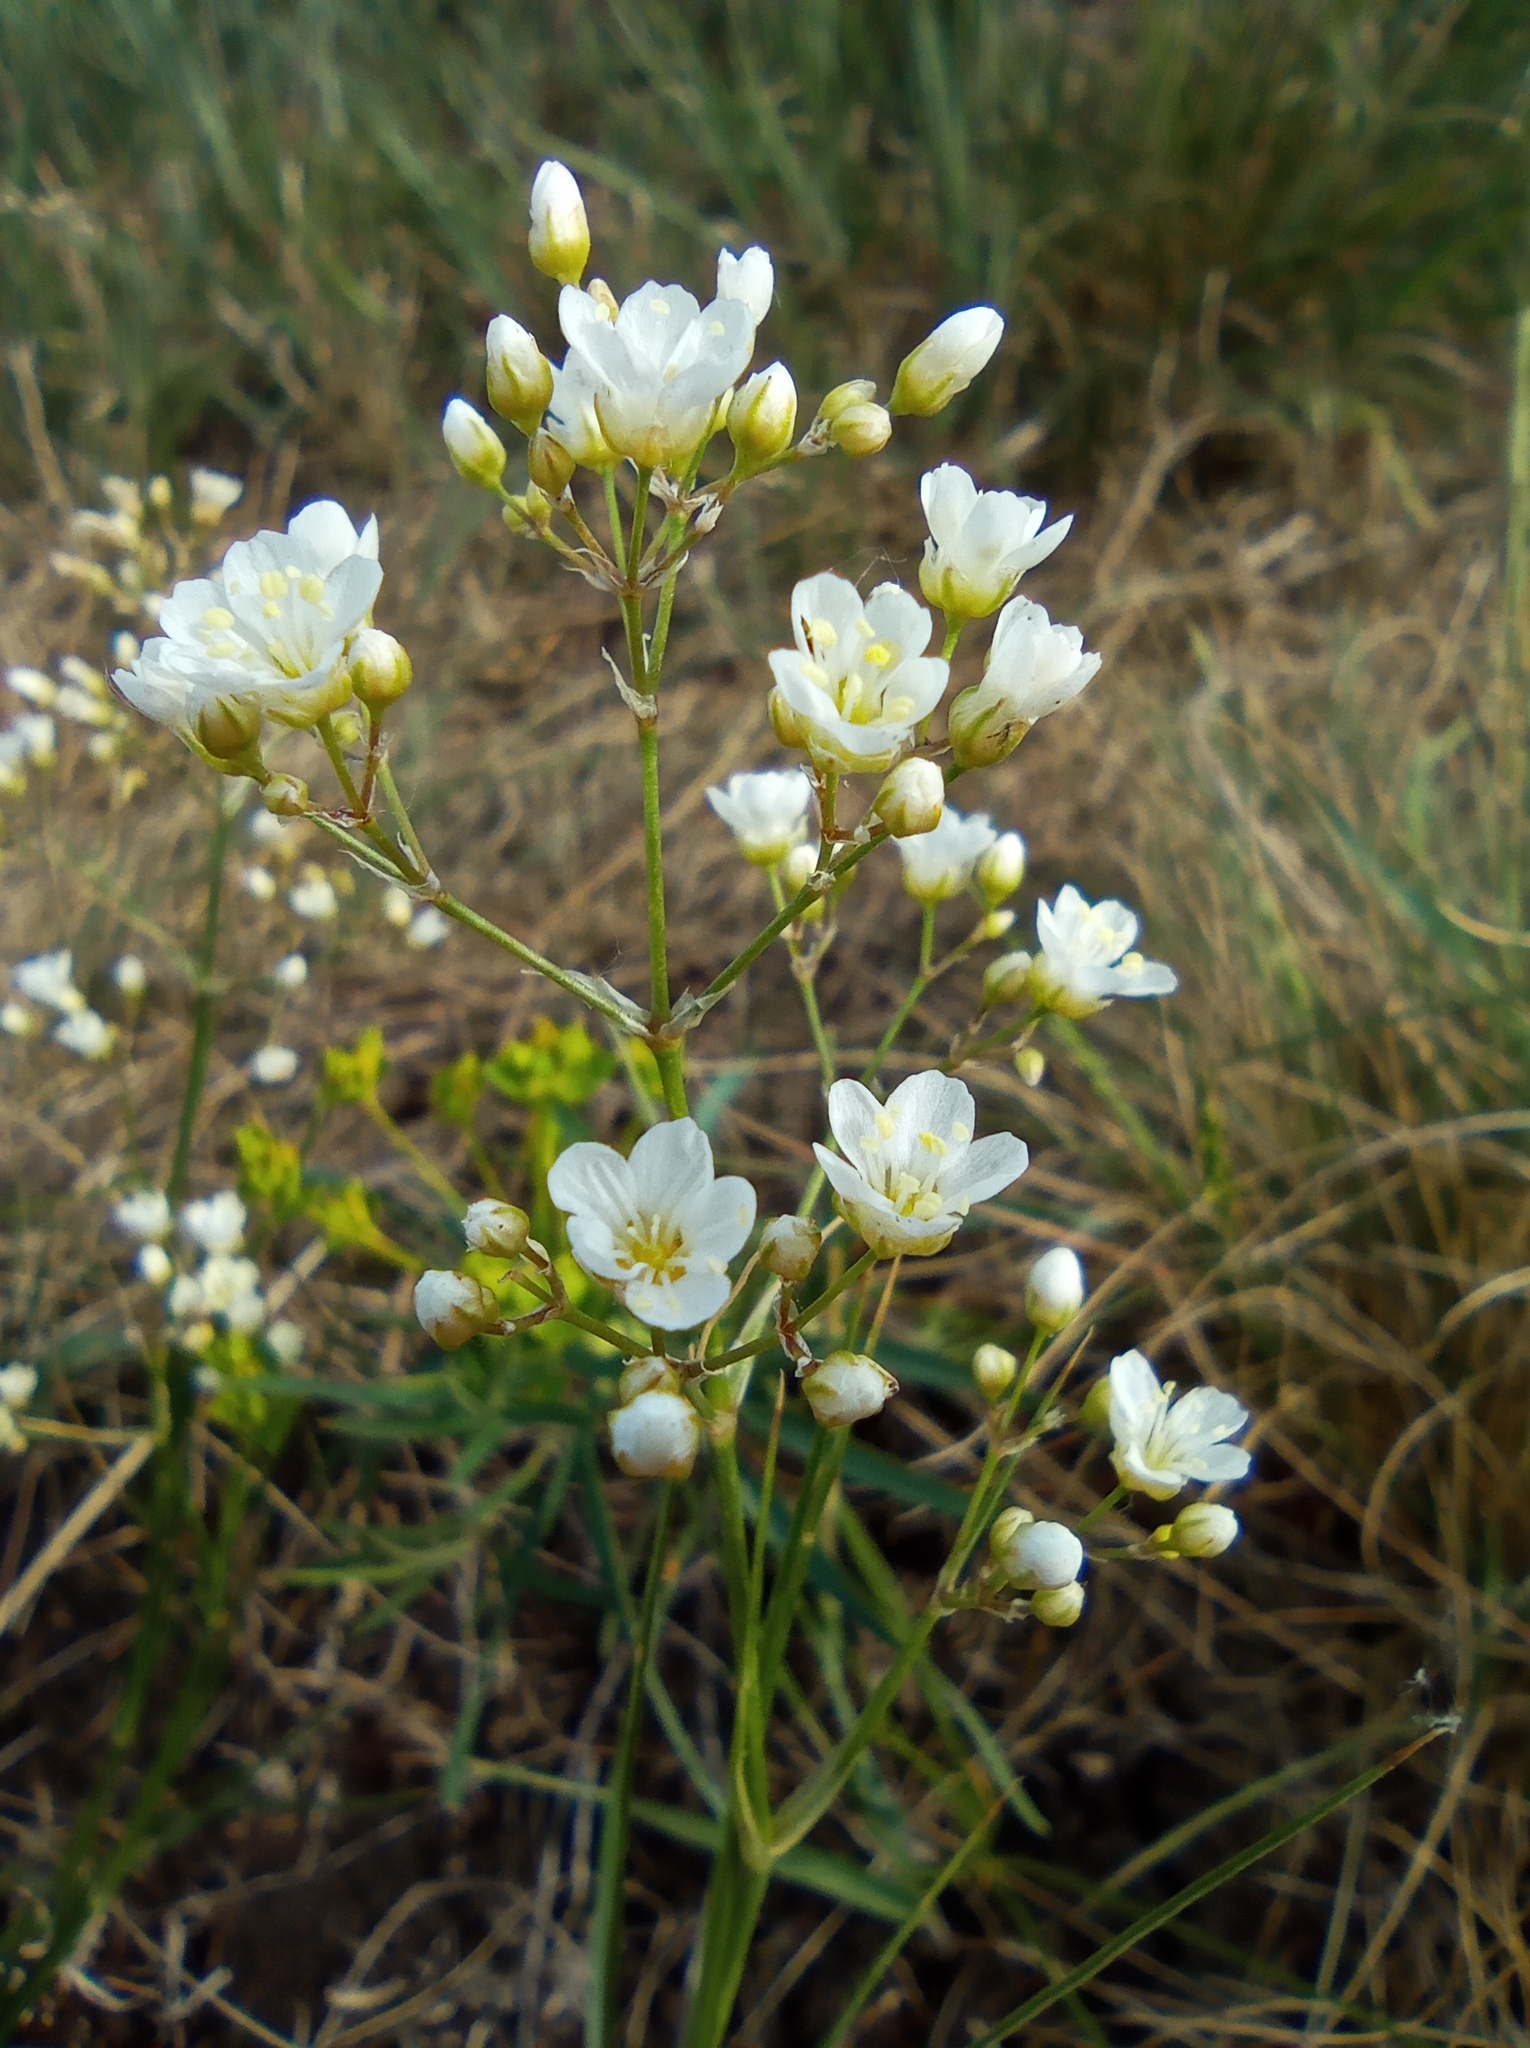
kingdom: Plantae
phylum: Tracheophyta
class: Magnoliopsida
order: Caryophyllales
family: Caryophyllaceae
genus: Eremogone
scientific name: Eremogone longifolia
